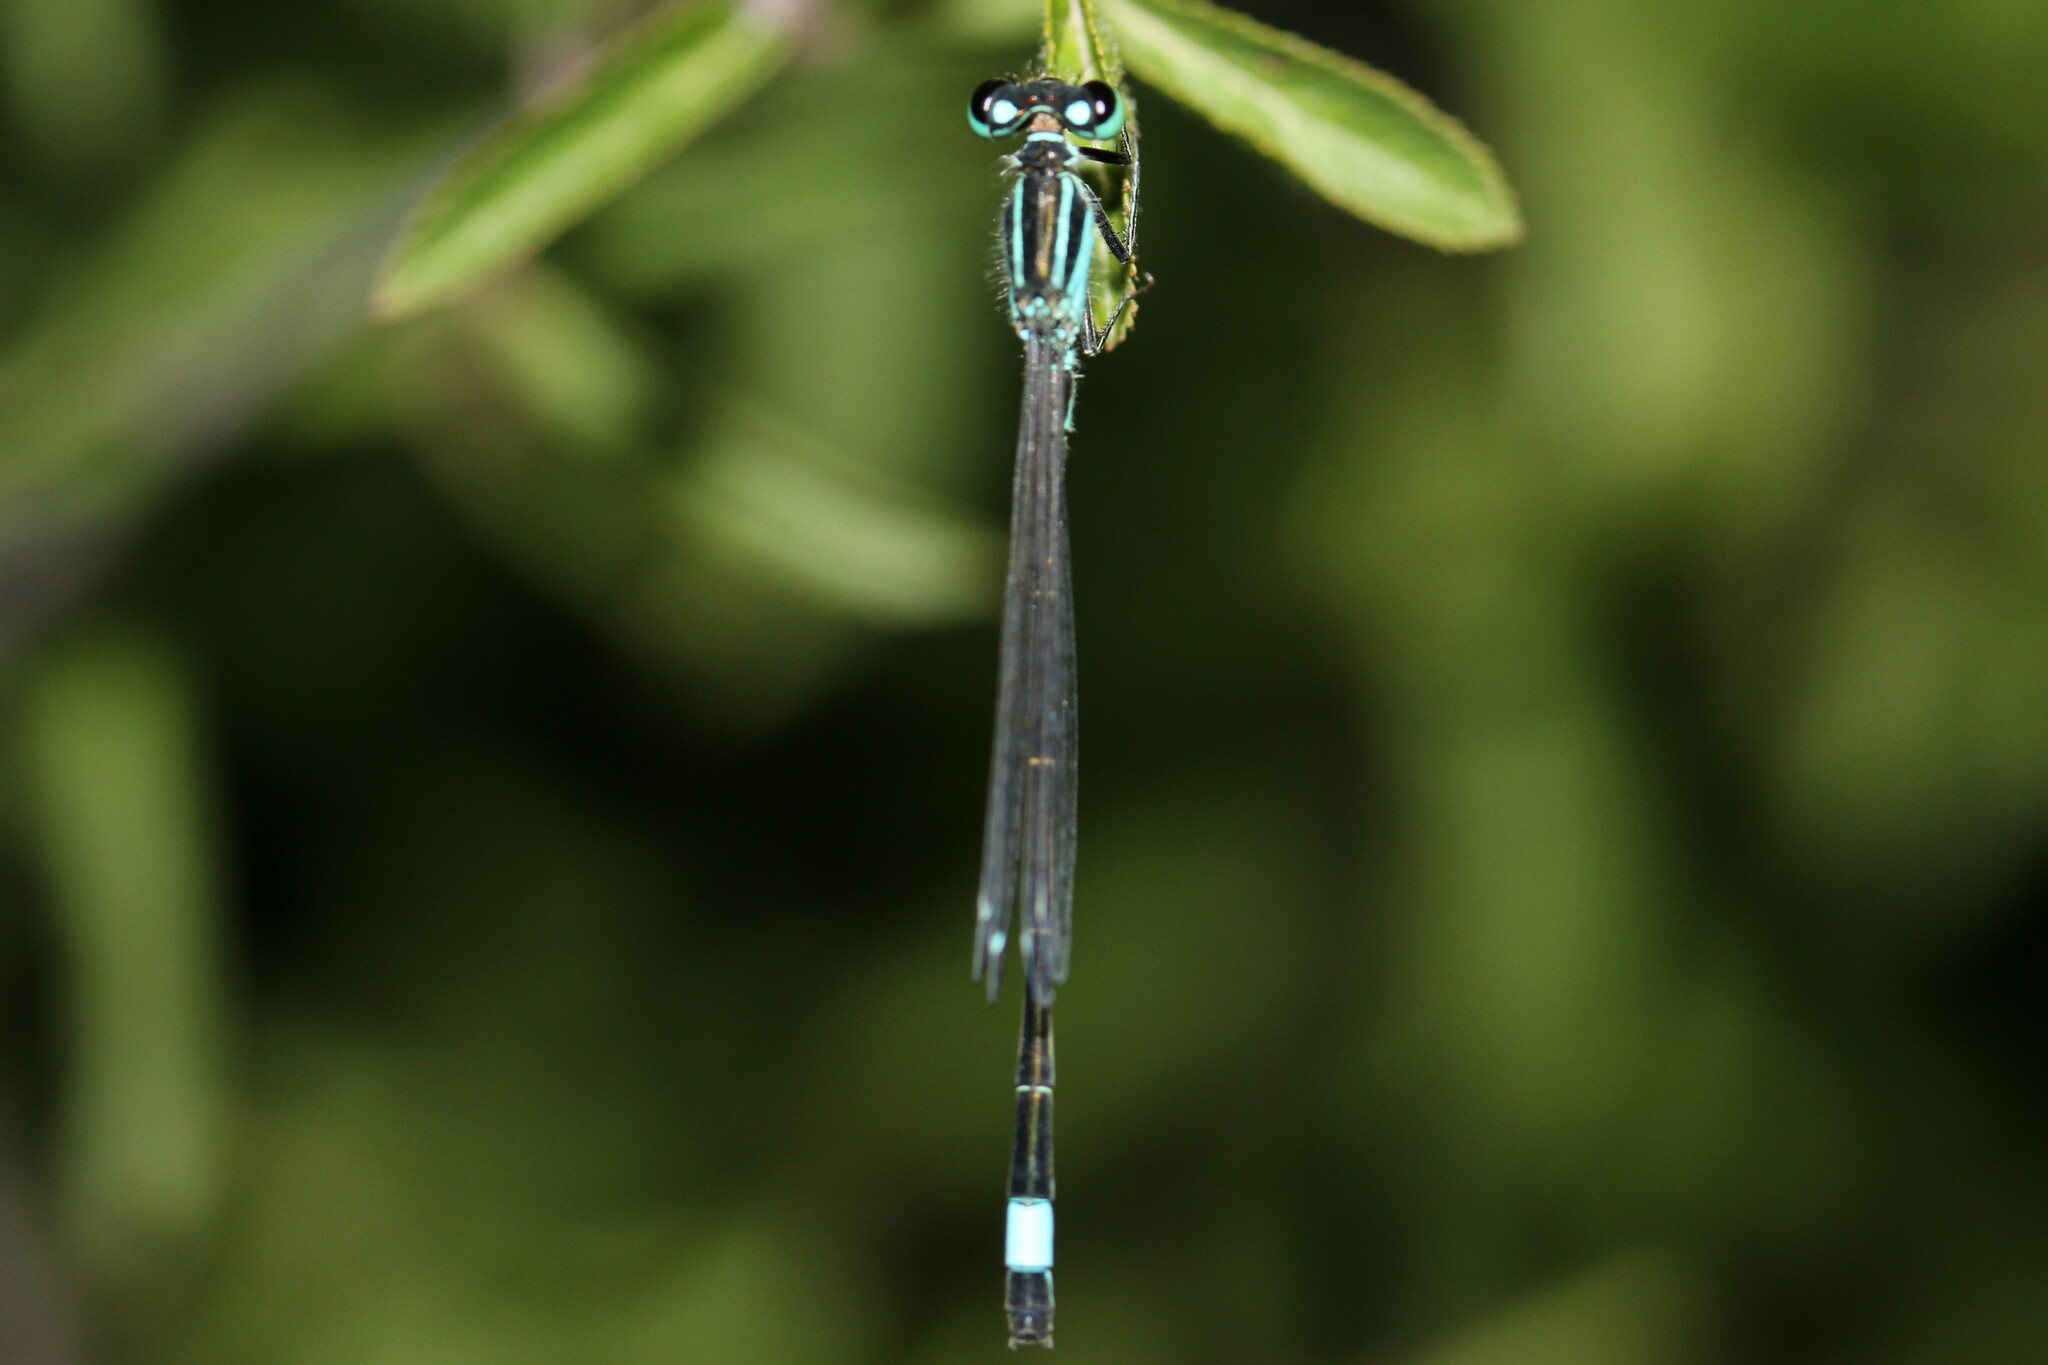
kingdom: Animalia
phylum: Arthropoda
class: Insecta
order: Odonata
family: Coenagrionidae
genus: Ischnura
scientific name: Ischnura elegans
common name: Blue-tailed damselfly
